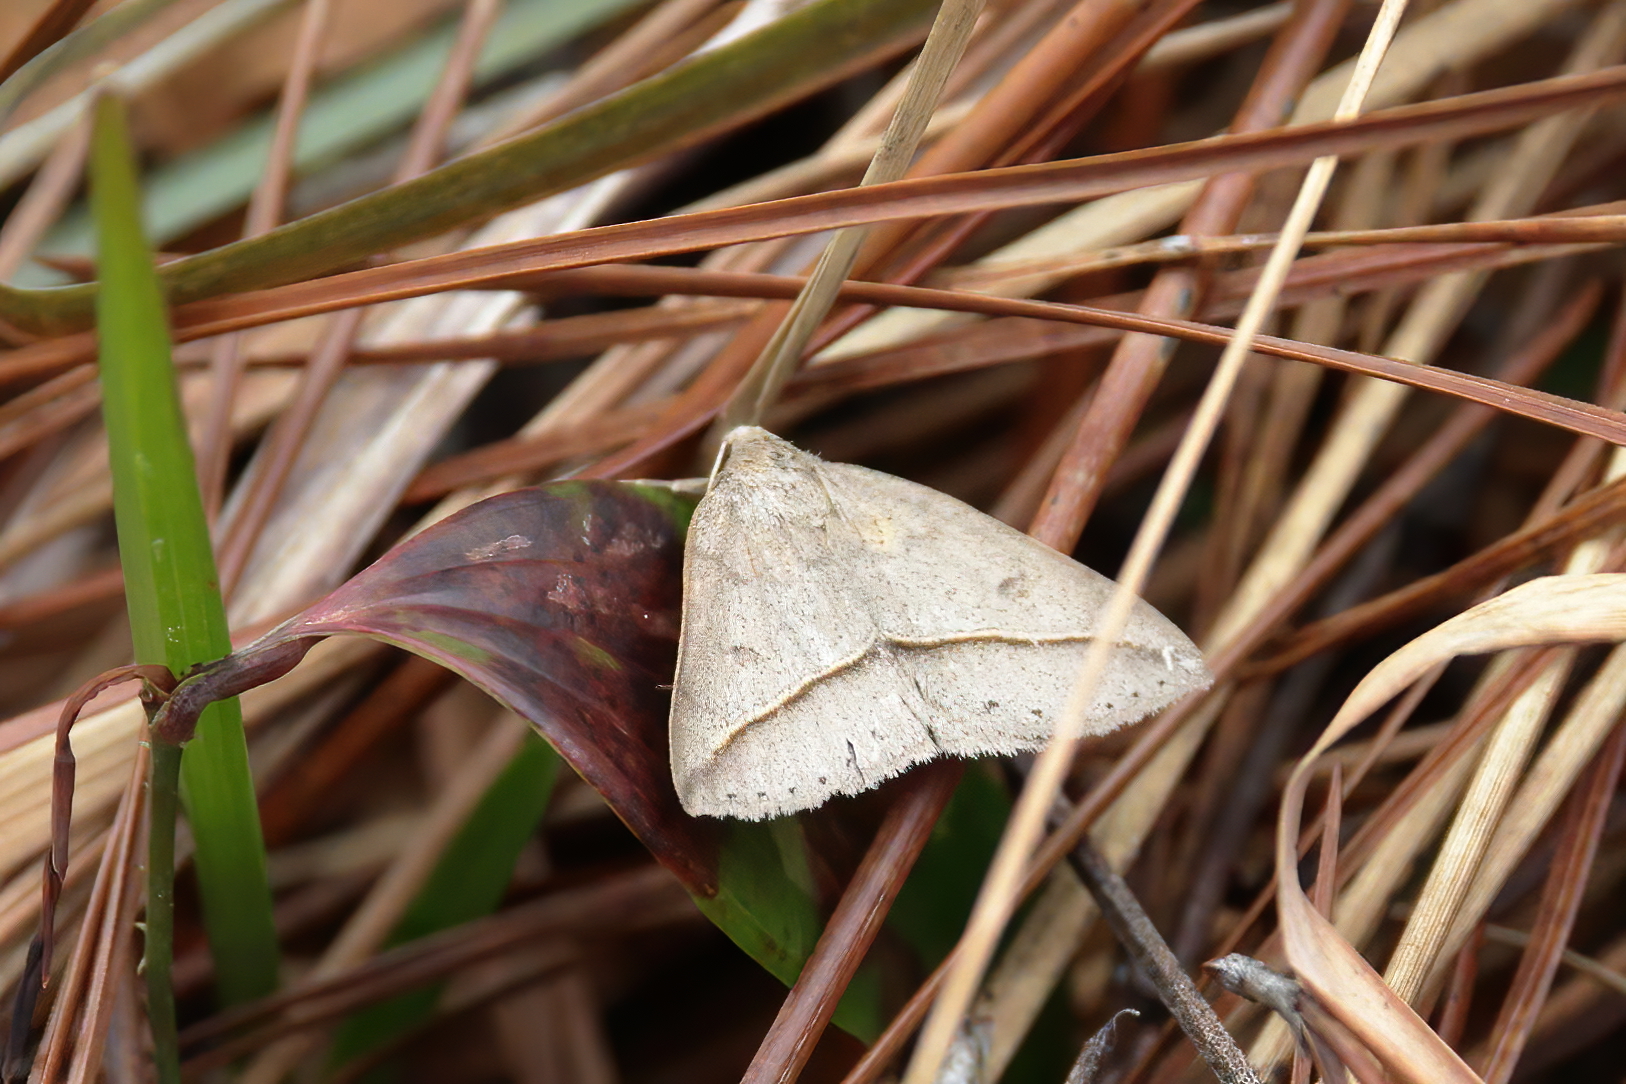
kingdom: Animalia
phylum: Arthropoda
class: Insecta
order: Lepidoptera
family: Erebidae
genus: Argyrostrotis
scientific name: Argyrostrotis flavistriaria
